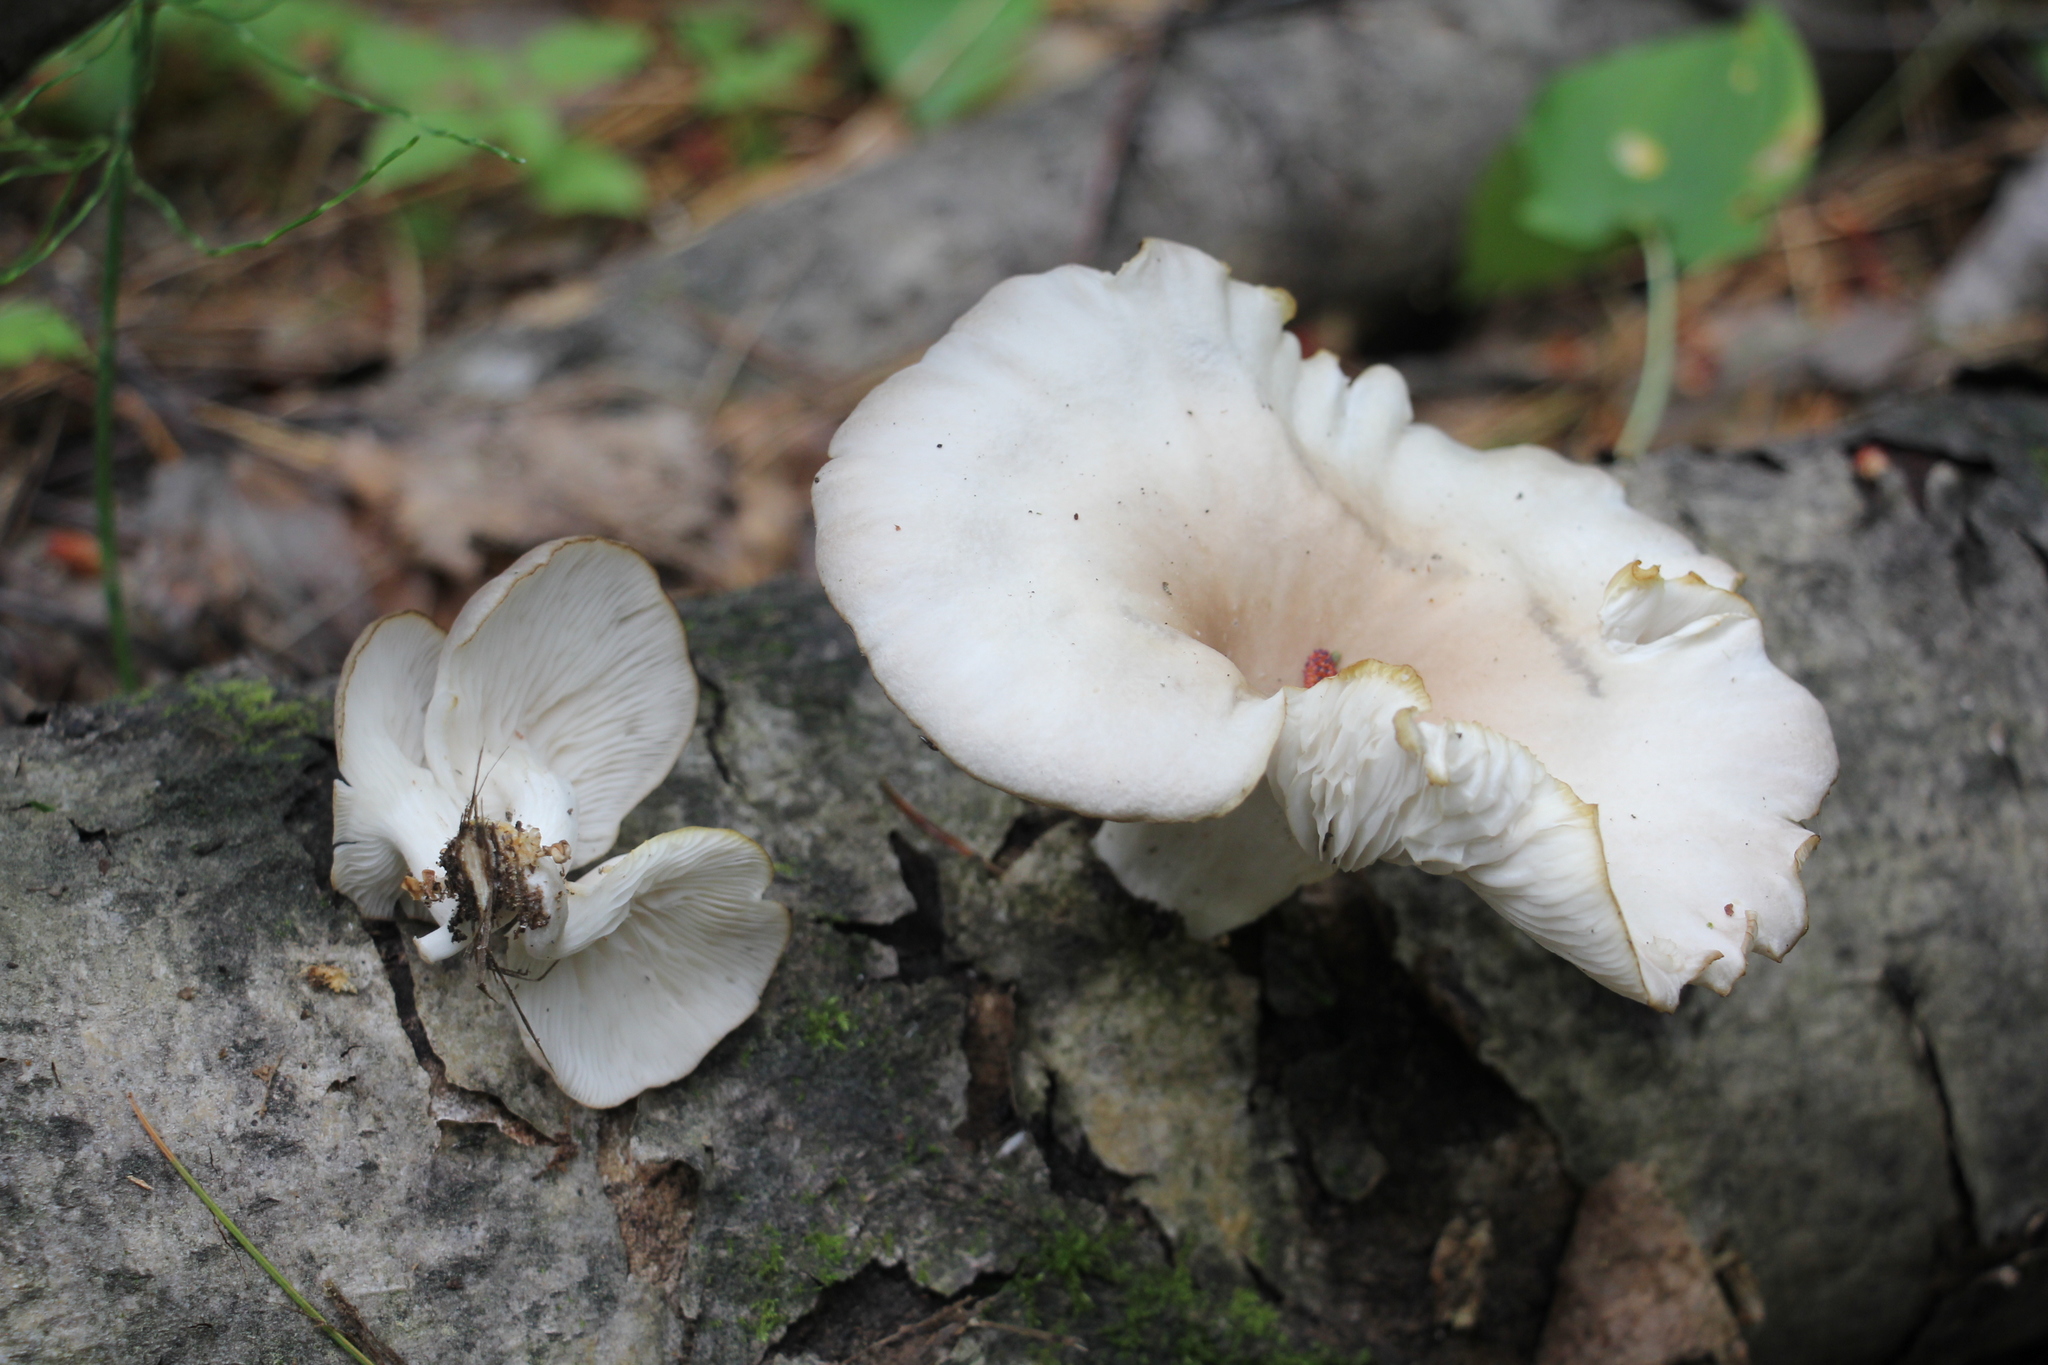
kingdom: Fungi
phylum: Basidiomycota
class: Agaricomycetes
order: Agaricales
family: Pleurotaceae
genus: Pleurotus
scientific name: Pleurotus pulmonarius
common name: Pale oyster
